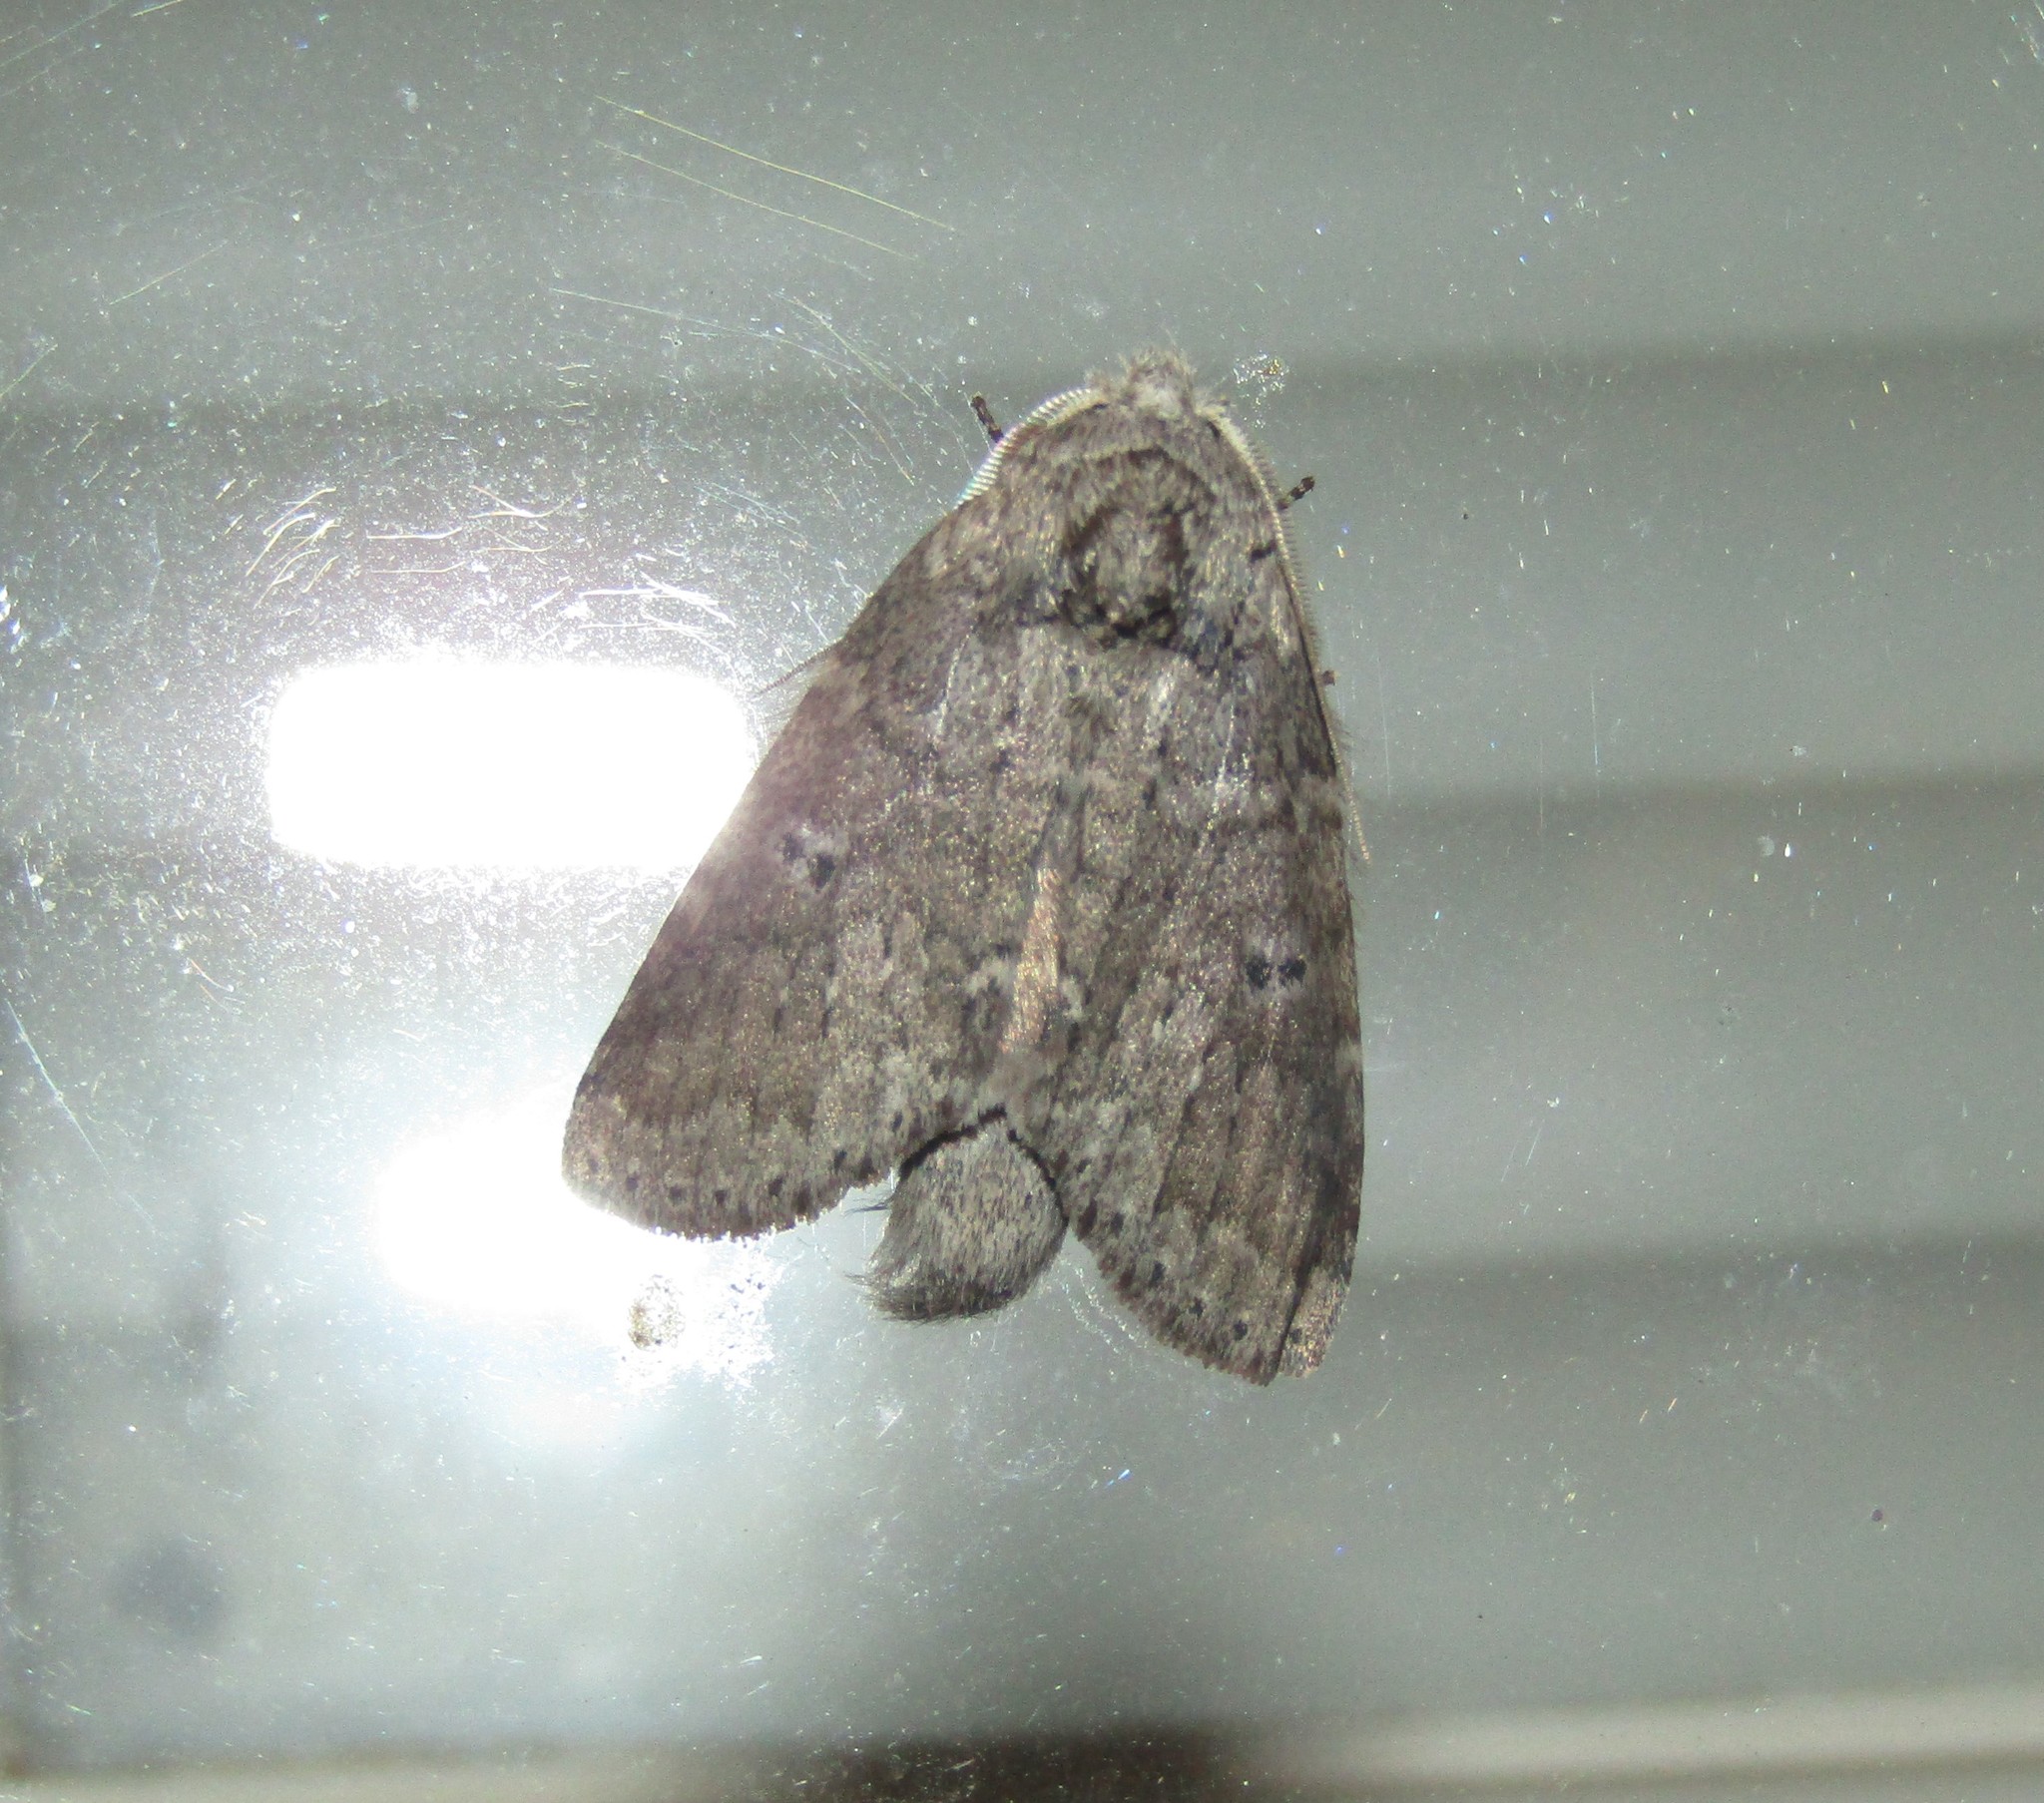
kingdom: Animalia
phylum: Arthropoda
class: Insecta
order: Lepidoptera
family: Notodontidae
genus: Lochmaeus
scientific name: Lochmaeus manteo
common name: Variable oakleaf caterpillar moth
